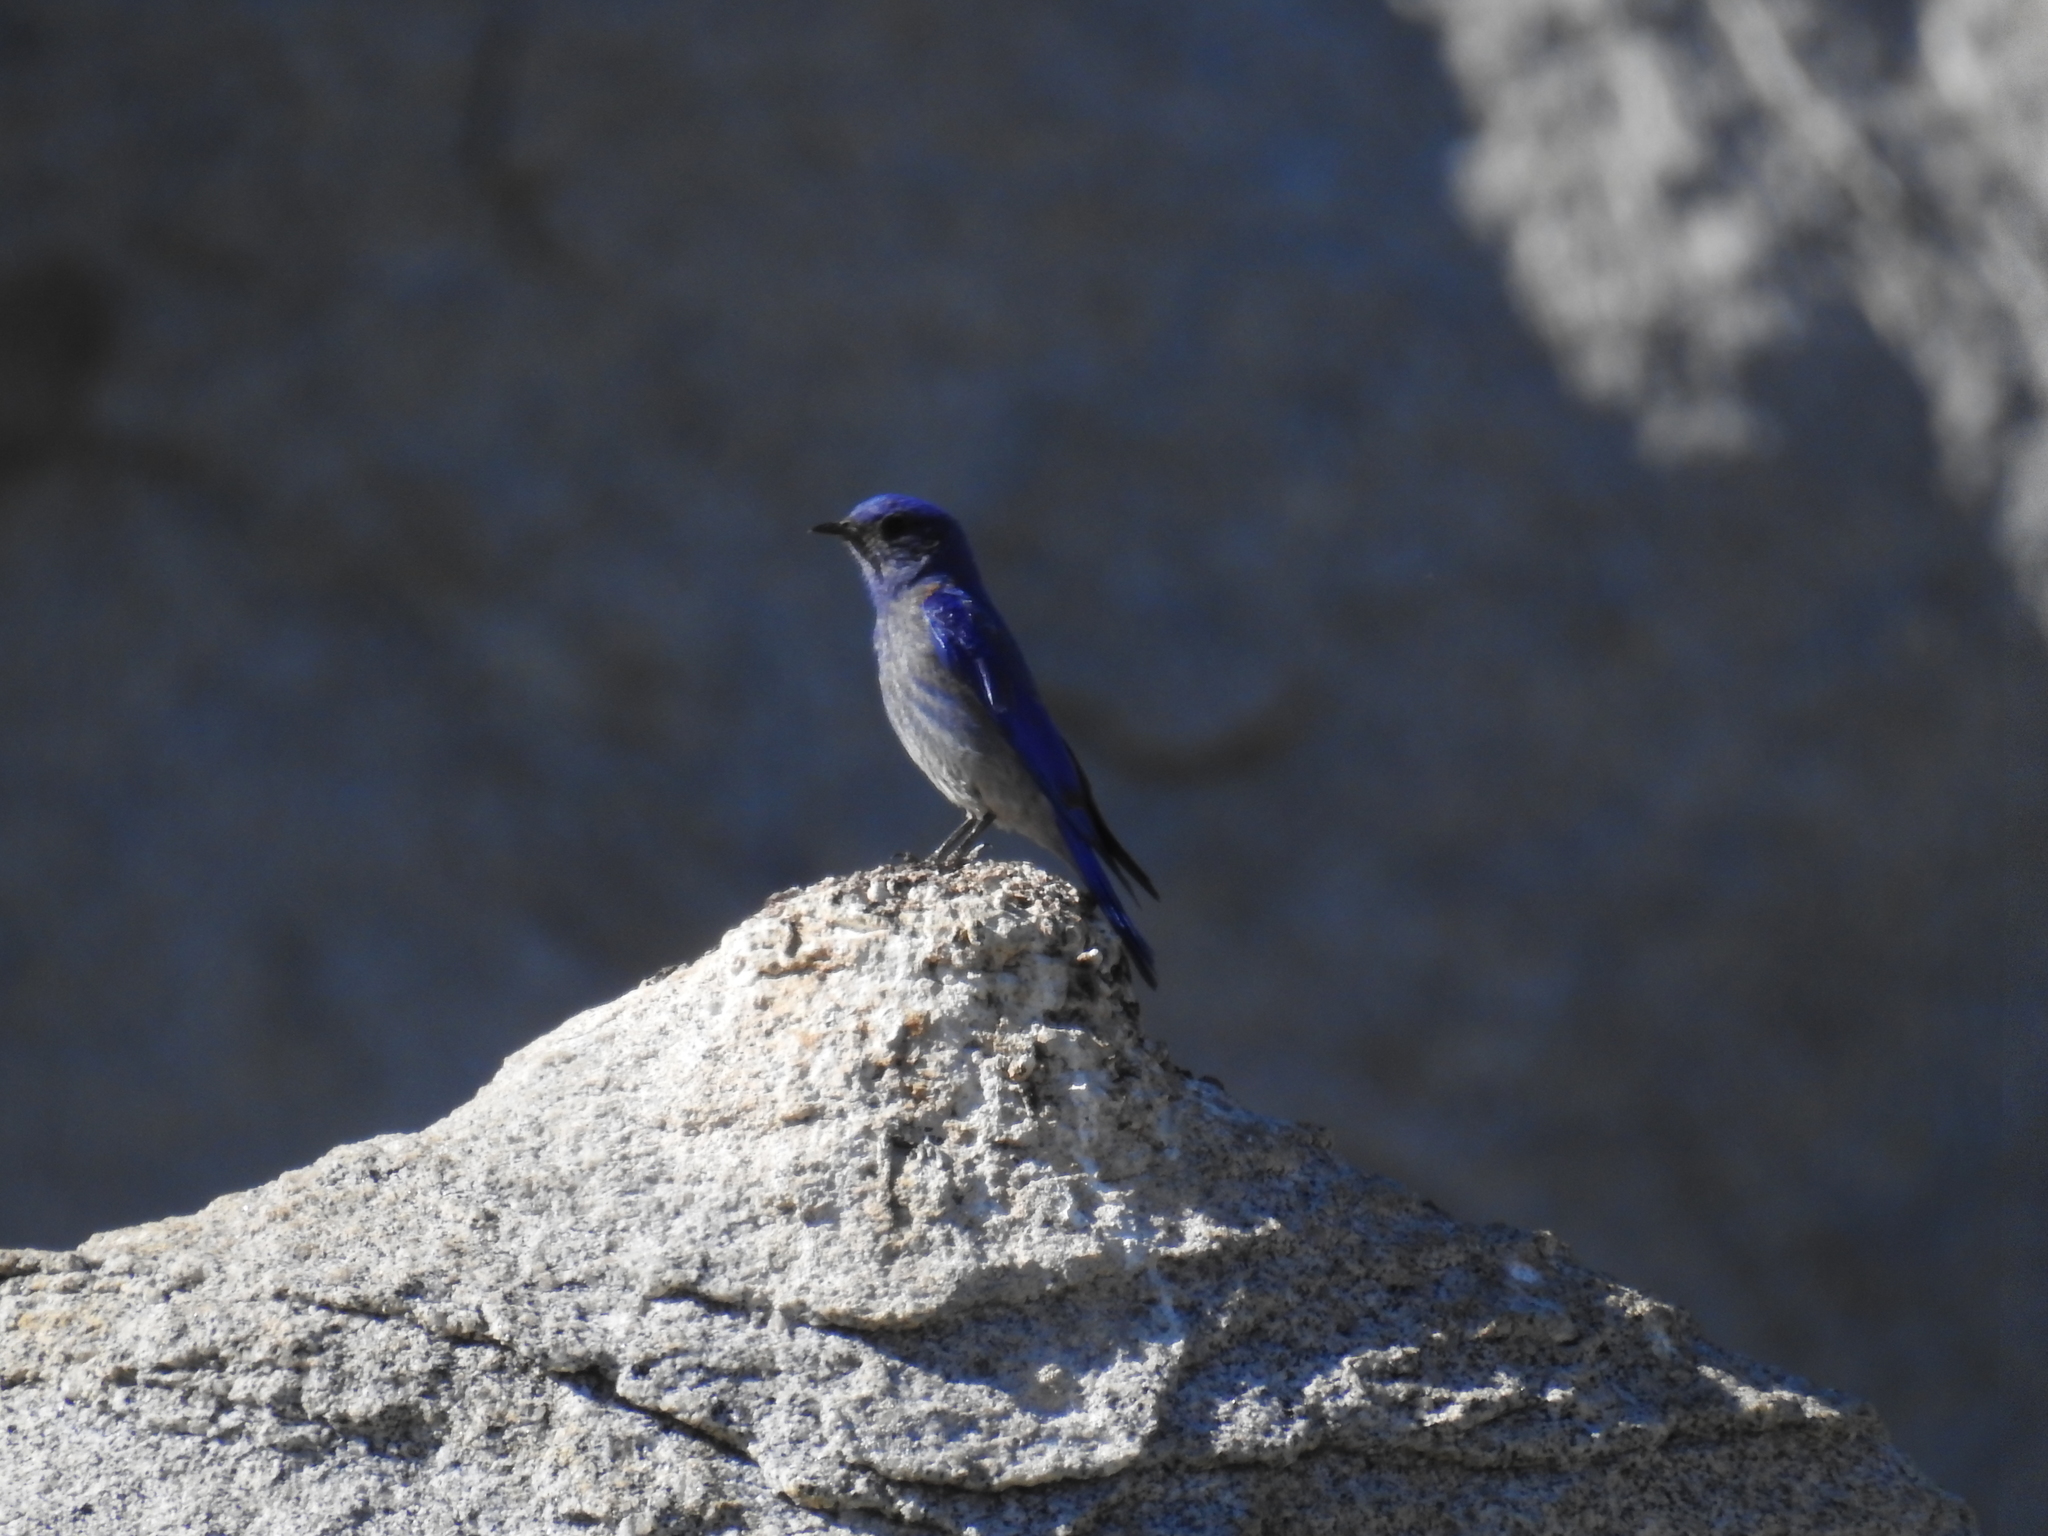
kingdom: Animalia
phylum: Chordata
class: Aves
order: Passeriformes
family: Turdidae
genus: Sialia
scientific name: Sialia mexicana
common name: Western bluebird
